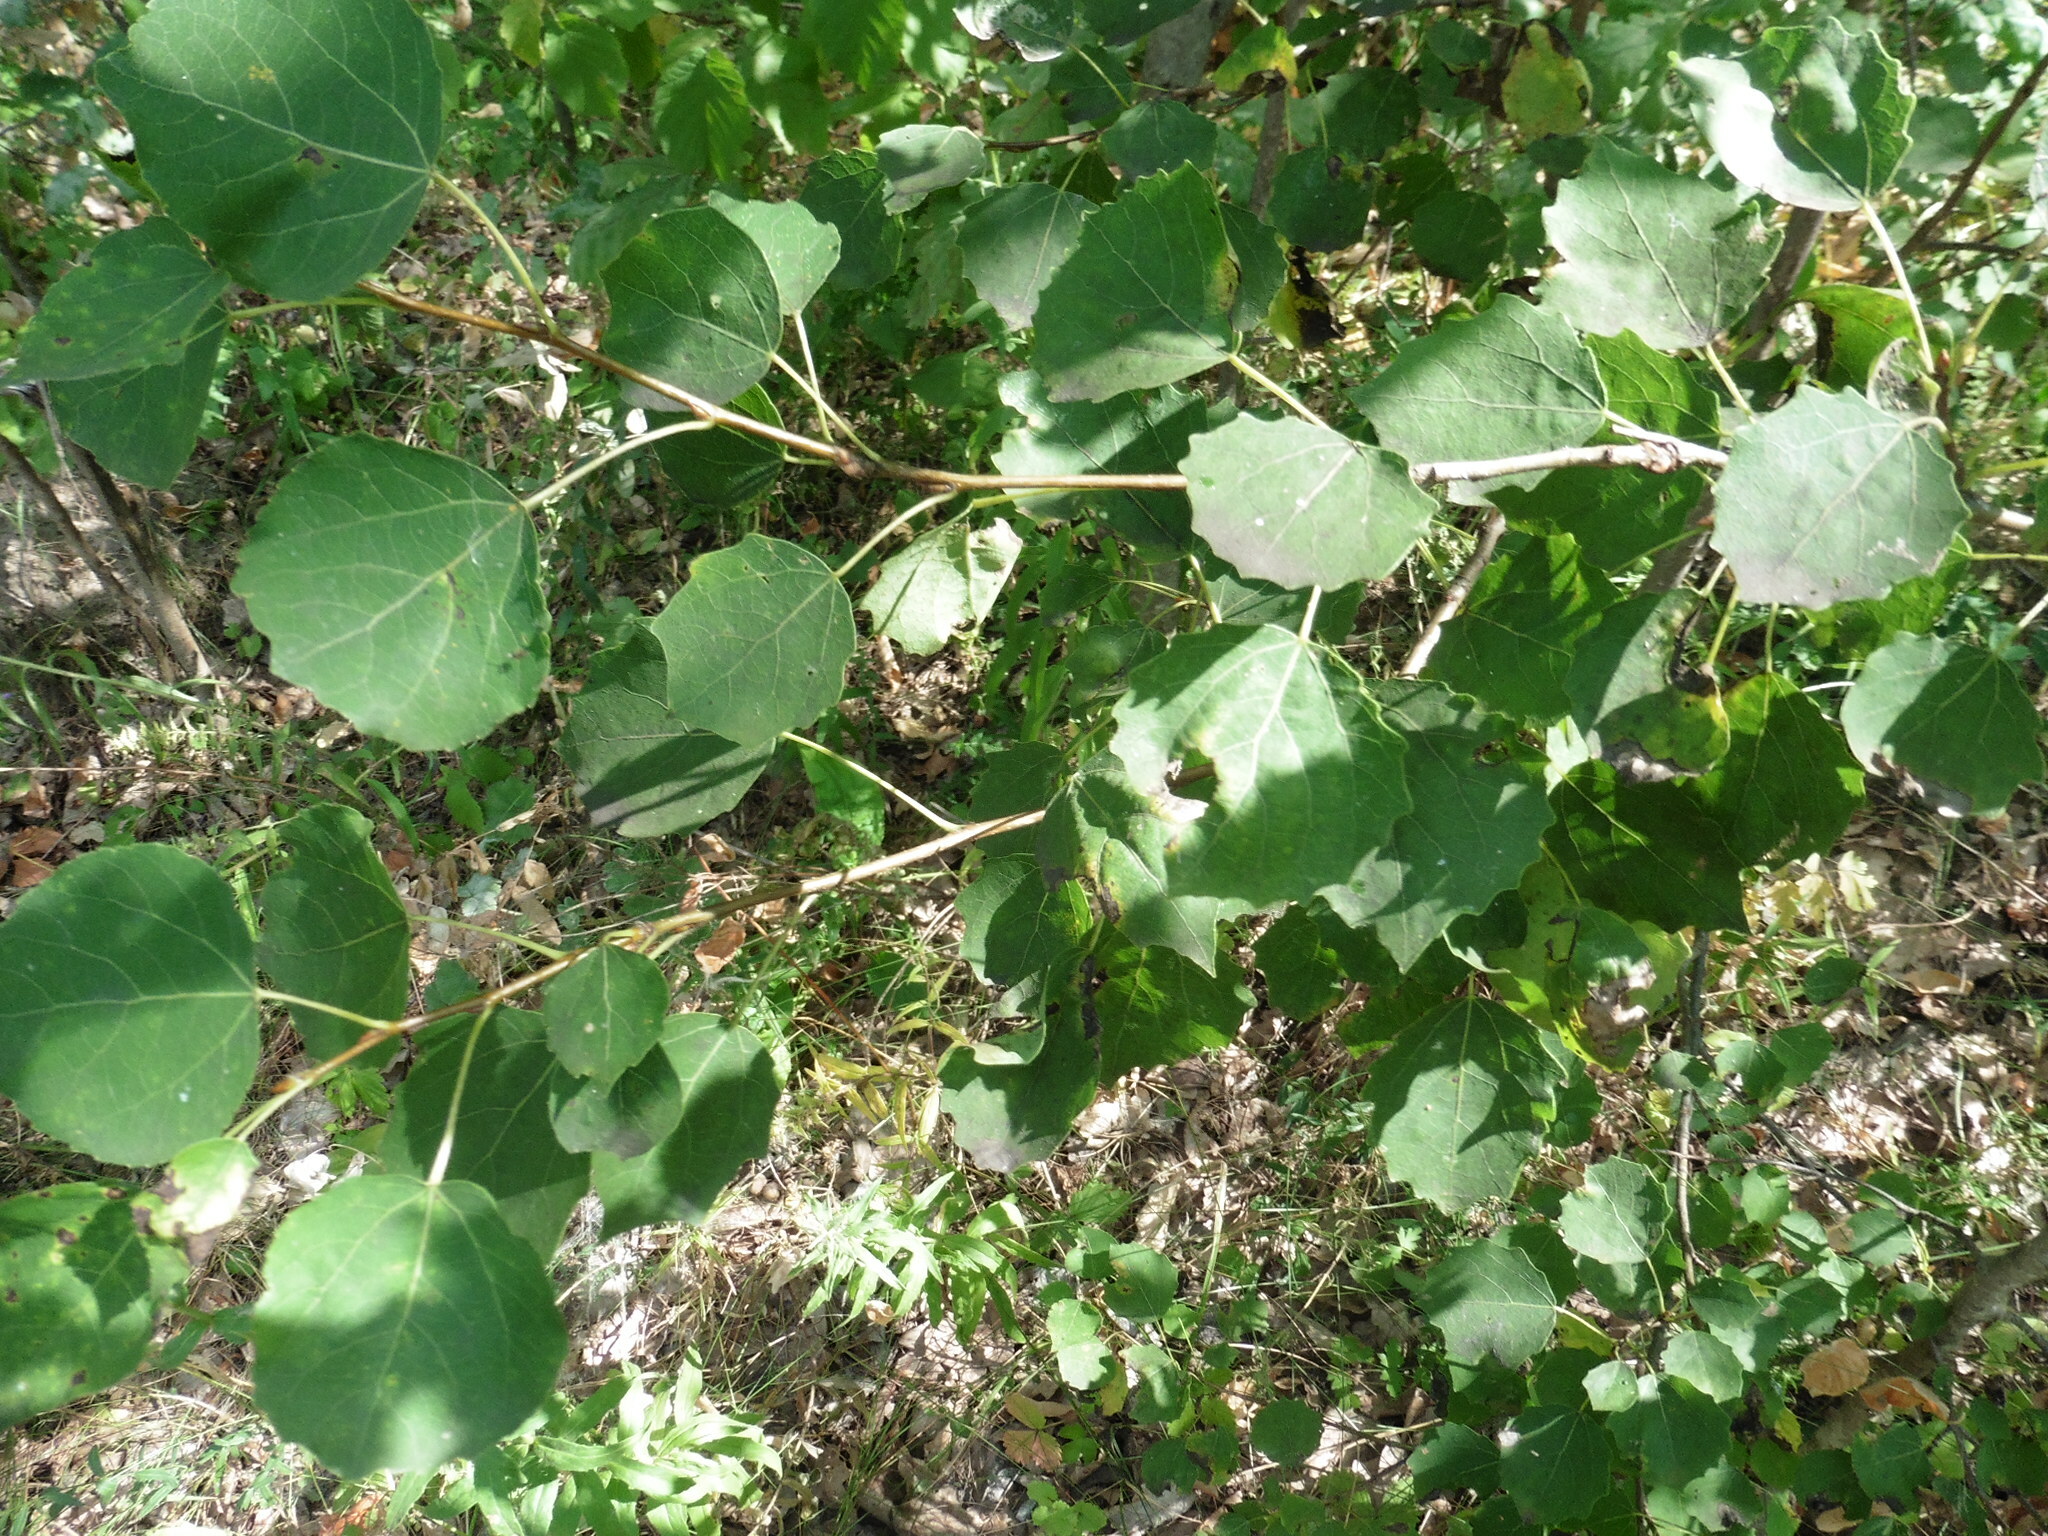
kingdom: Plantae
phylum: Tracheophyta
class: Magnoliopsida
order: Malpighiales
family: Salicaceae
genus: Populus
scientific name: Populus tremula
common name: European aspen
